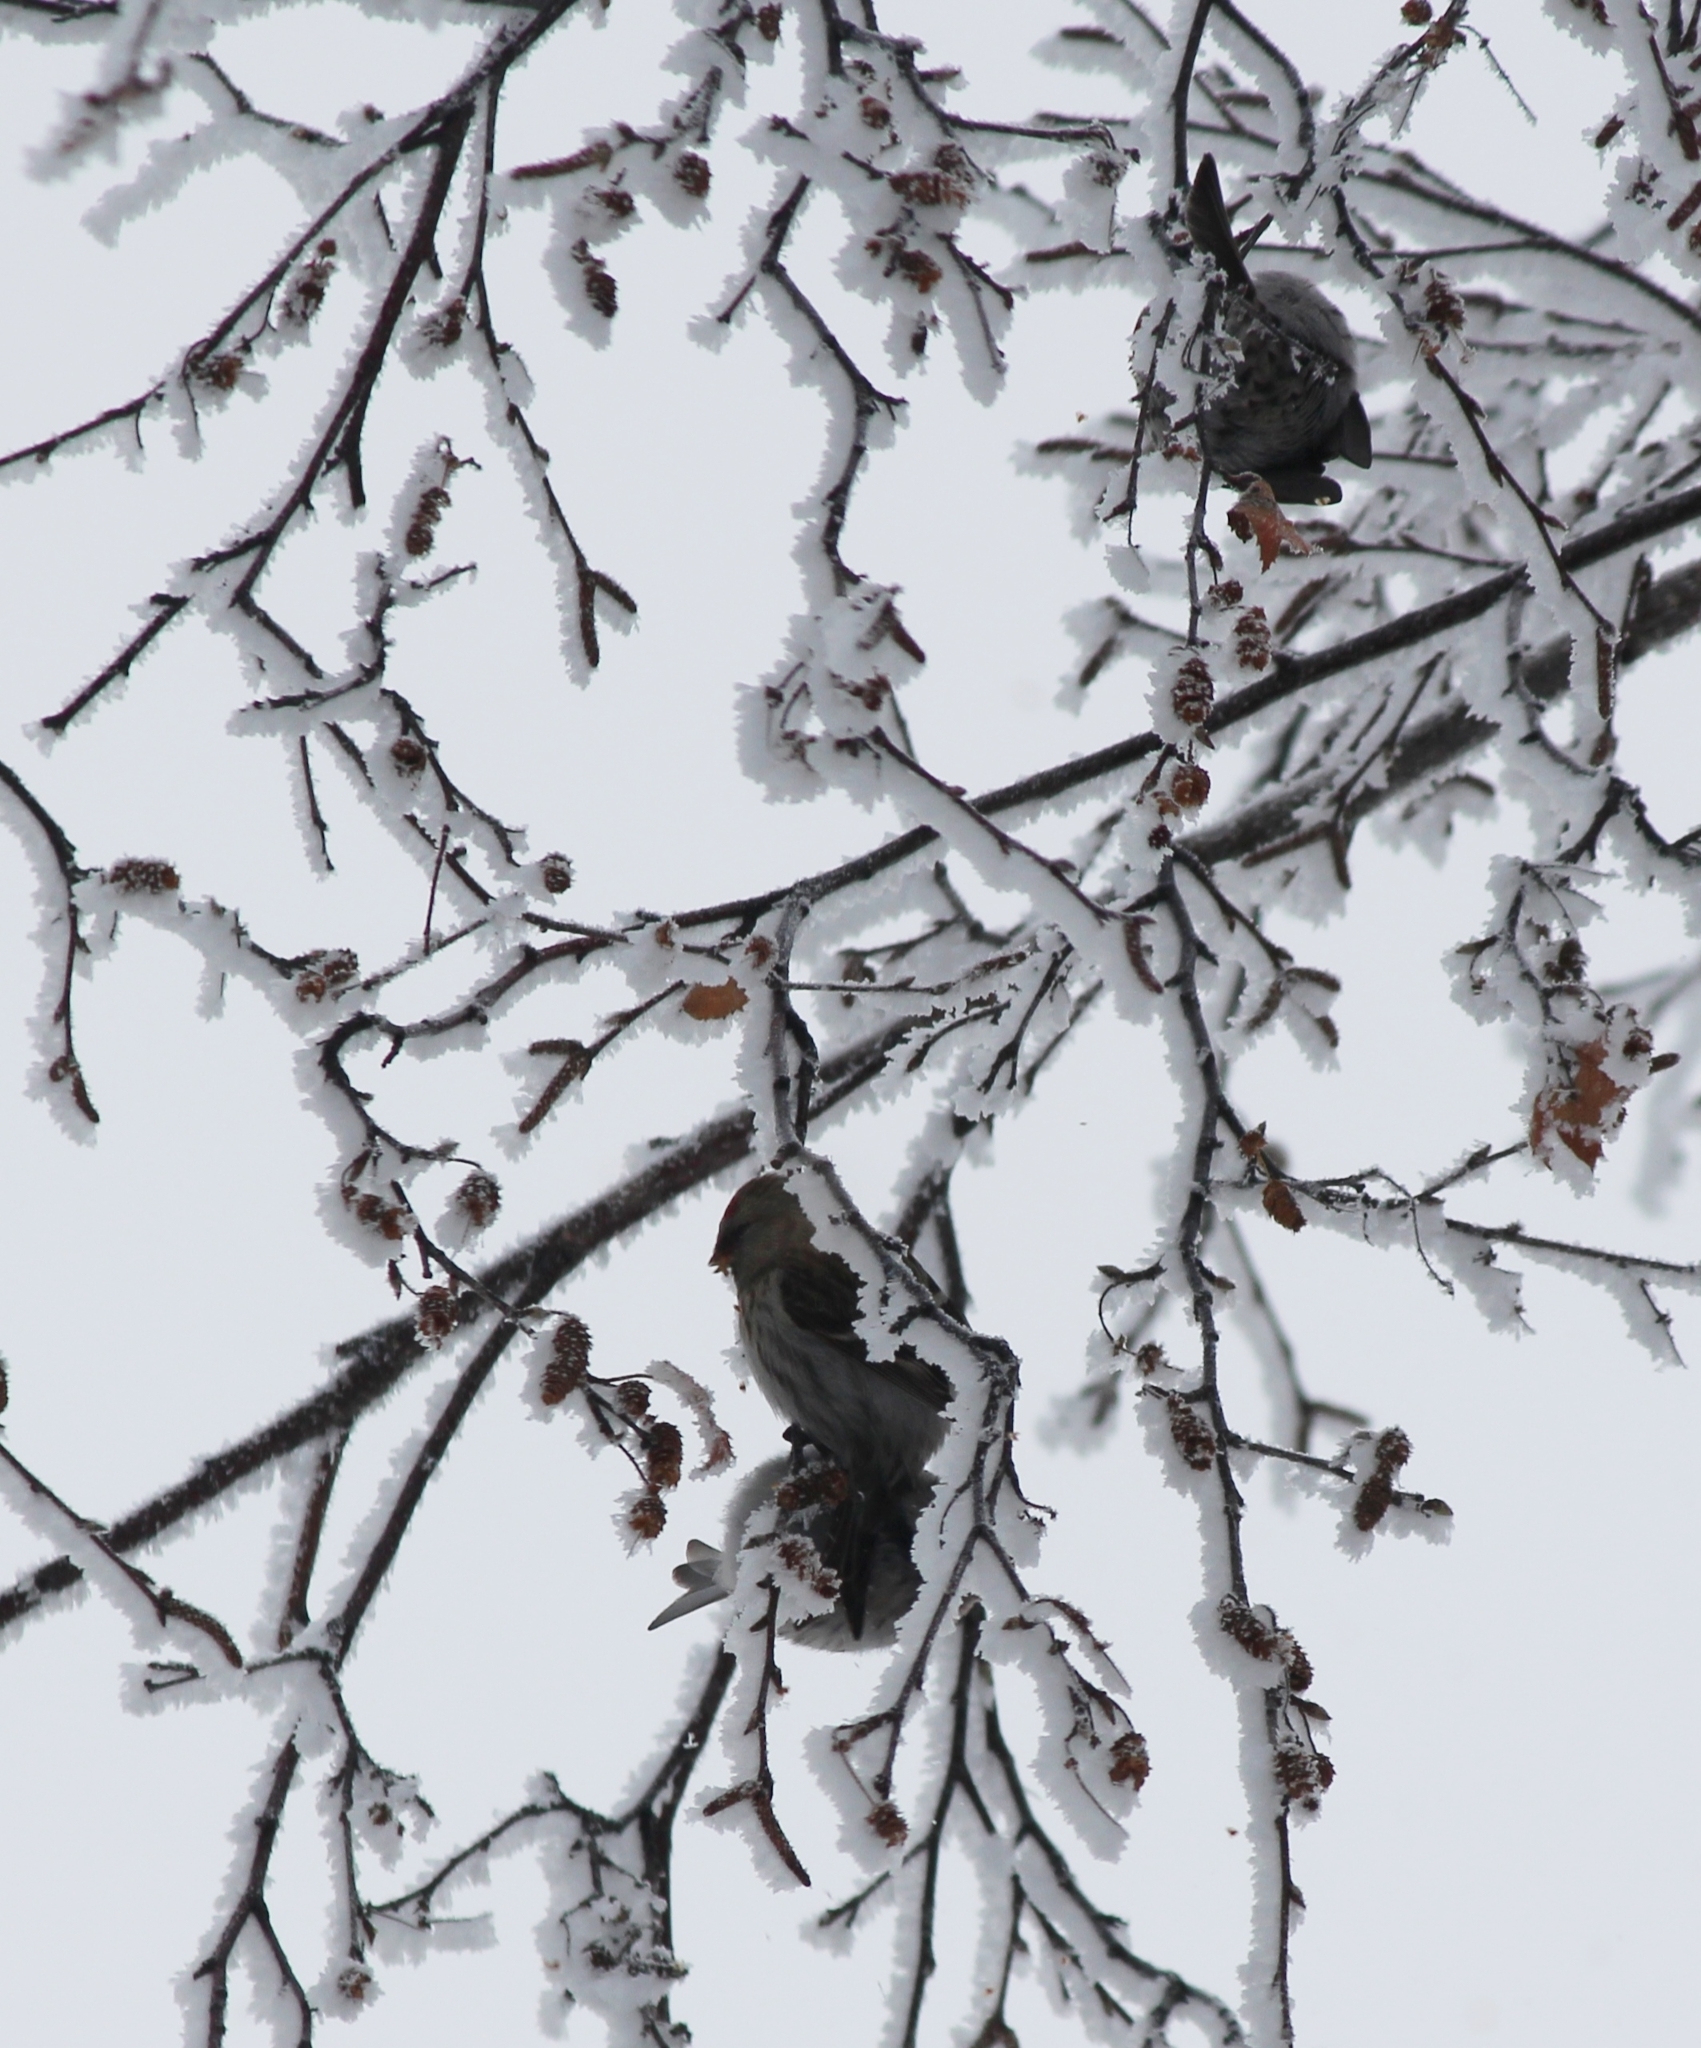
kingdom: Animalia
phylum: Chordata
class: Aves
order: Passeriformes
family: Fringillidae
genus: Acanthis
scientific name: Acanthis flammea
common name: Common redpoll
